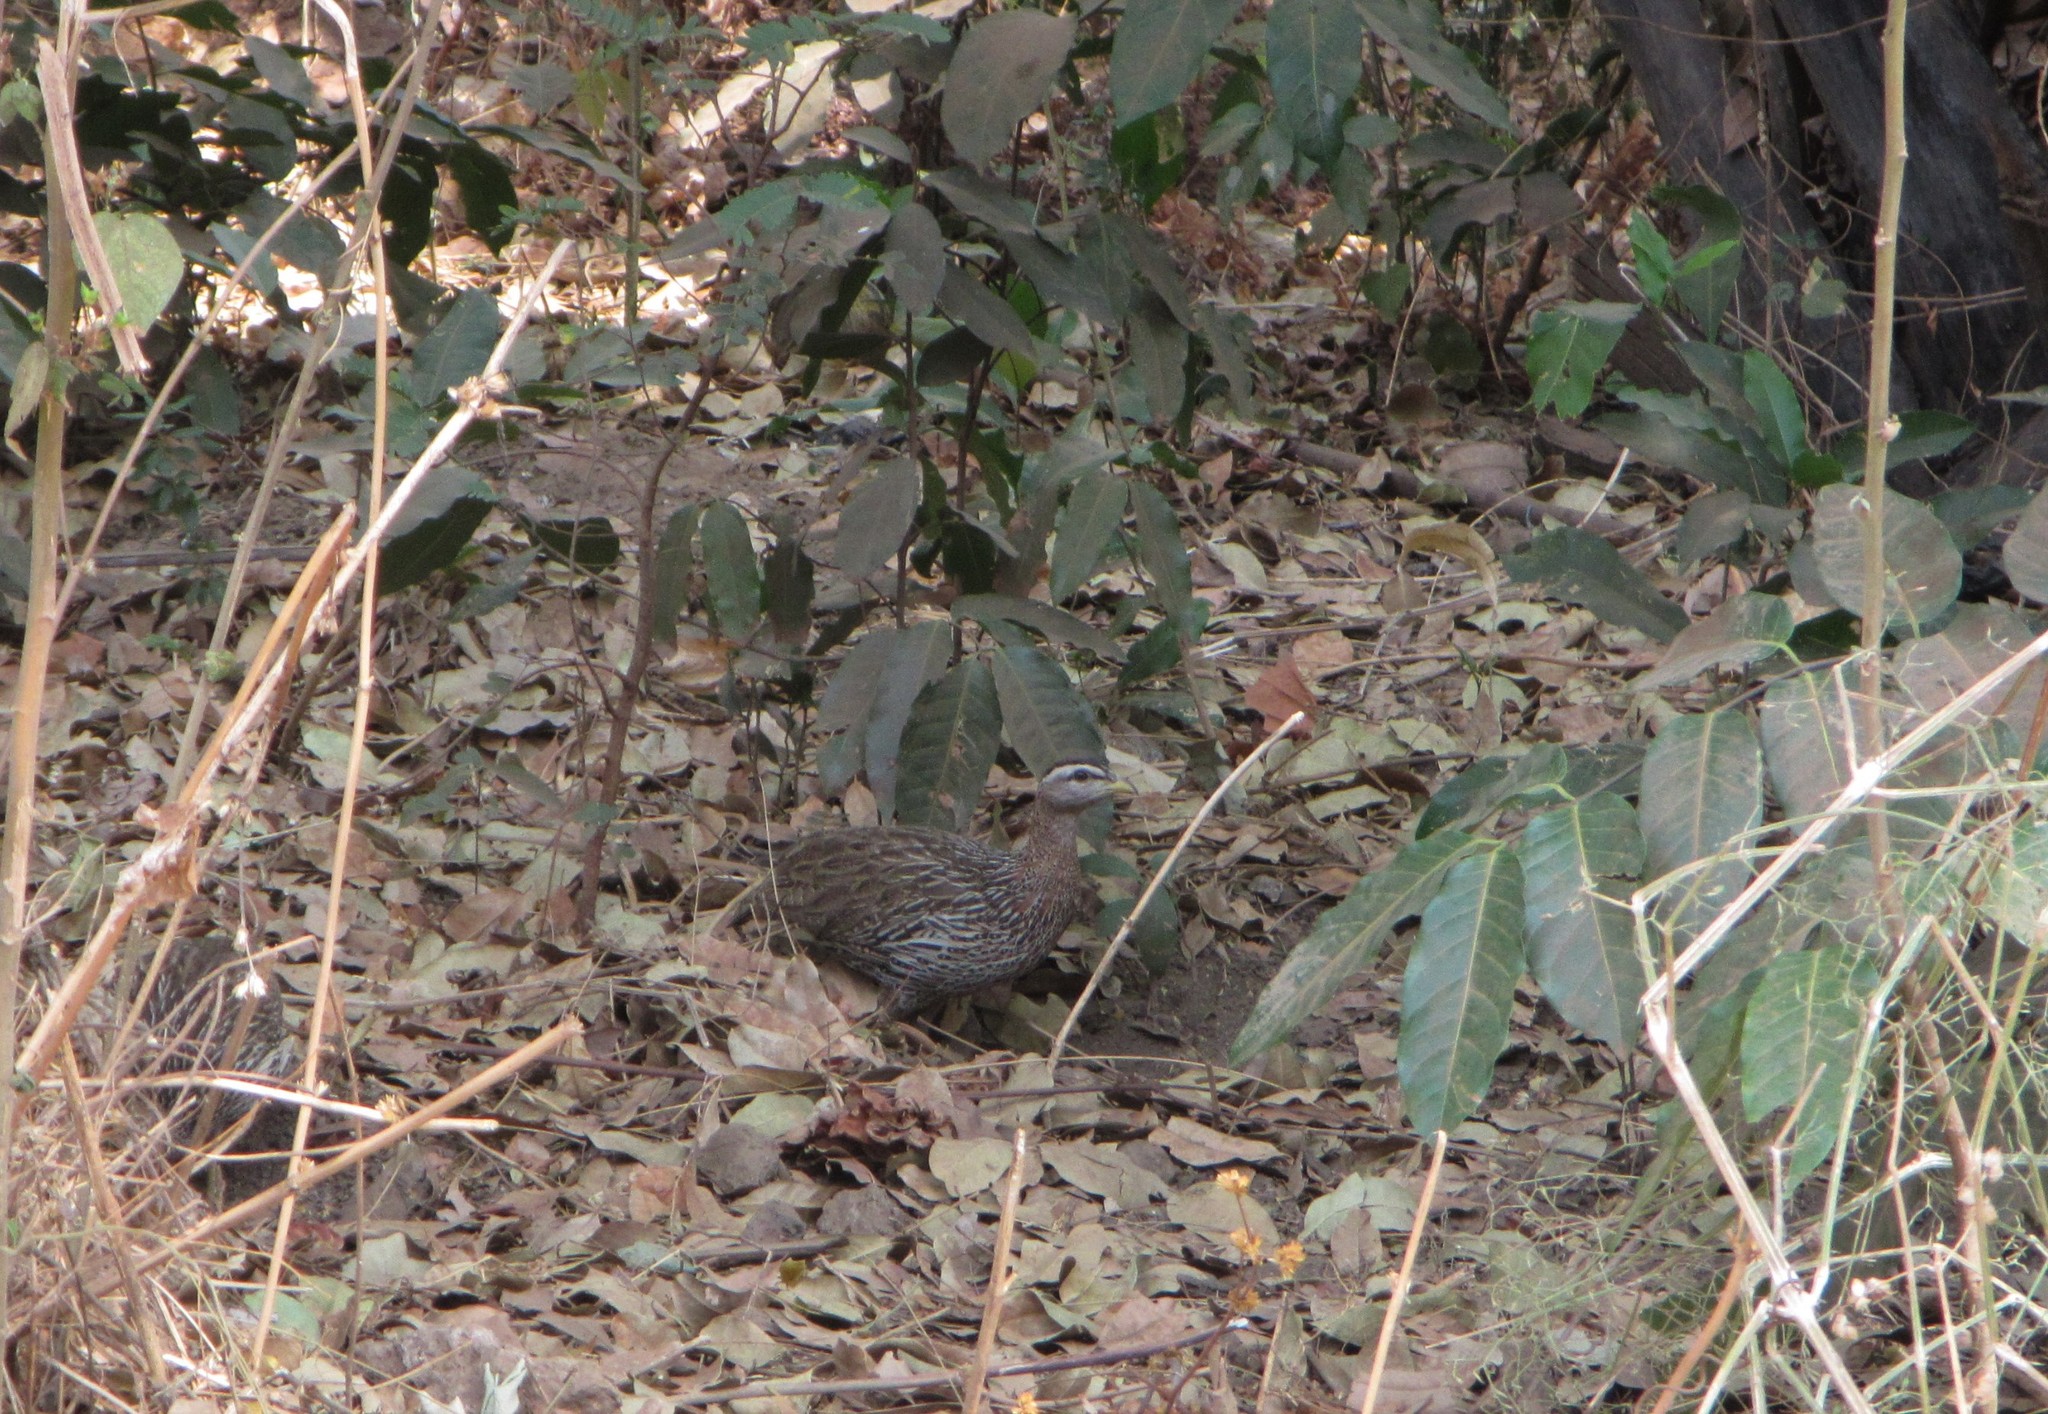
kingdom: Animalia
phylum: Chordata
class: Aves
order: Galliformes
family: Phasianidae
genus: Pternistis
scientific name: Pternistis bicalcaratus
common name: Double-spurred francolin
